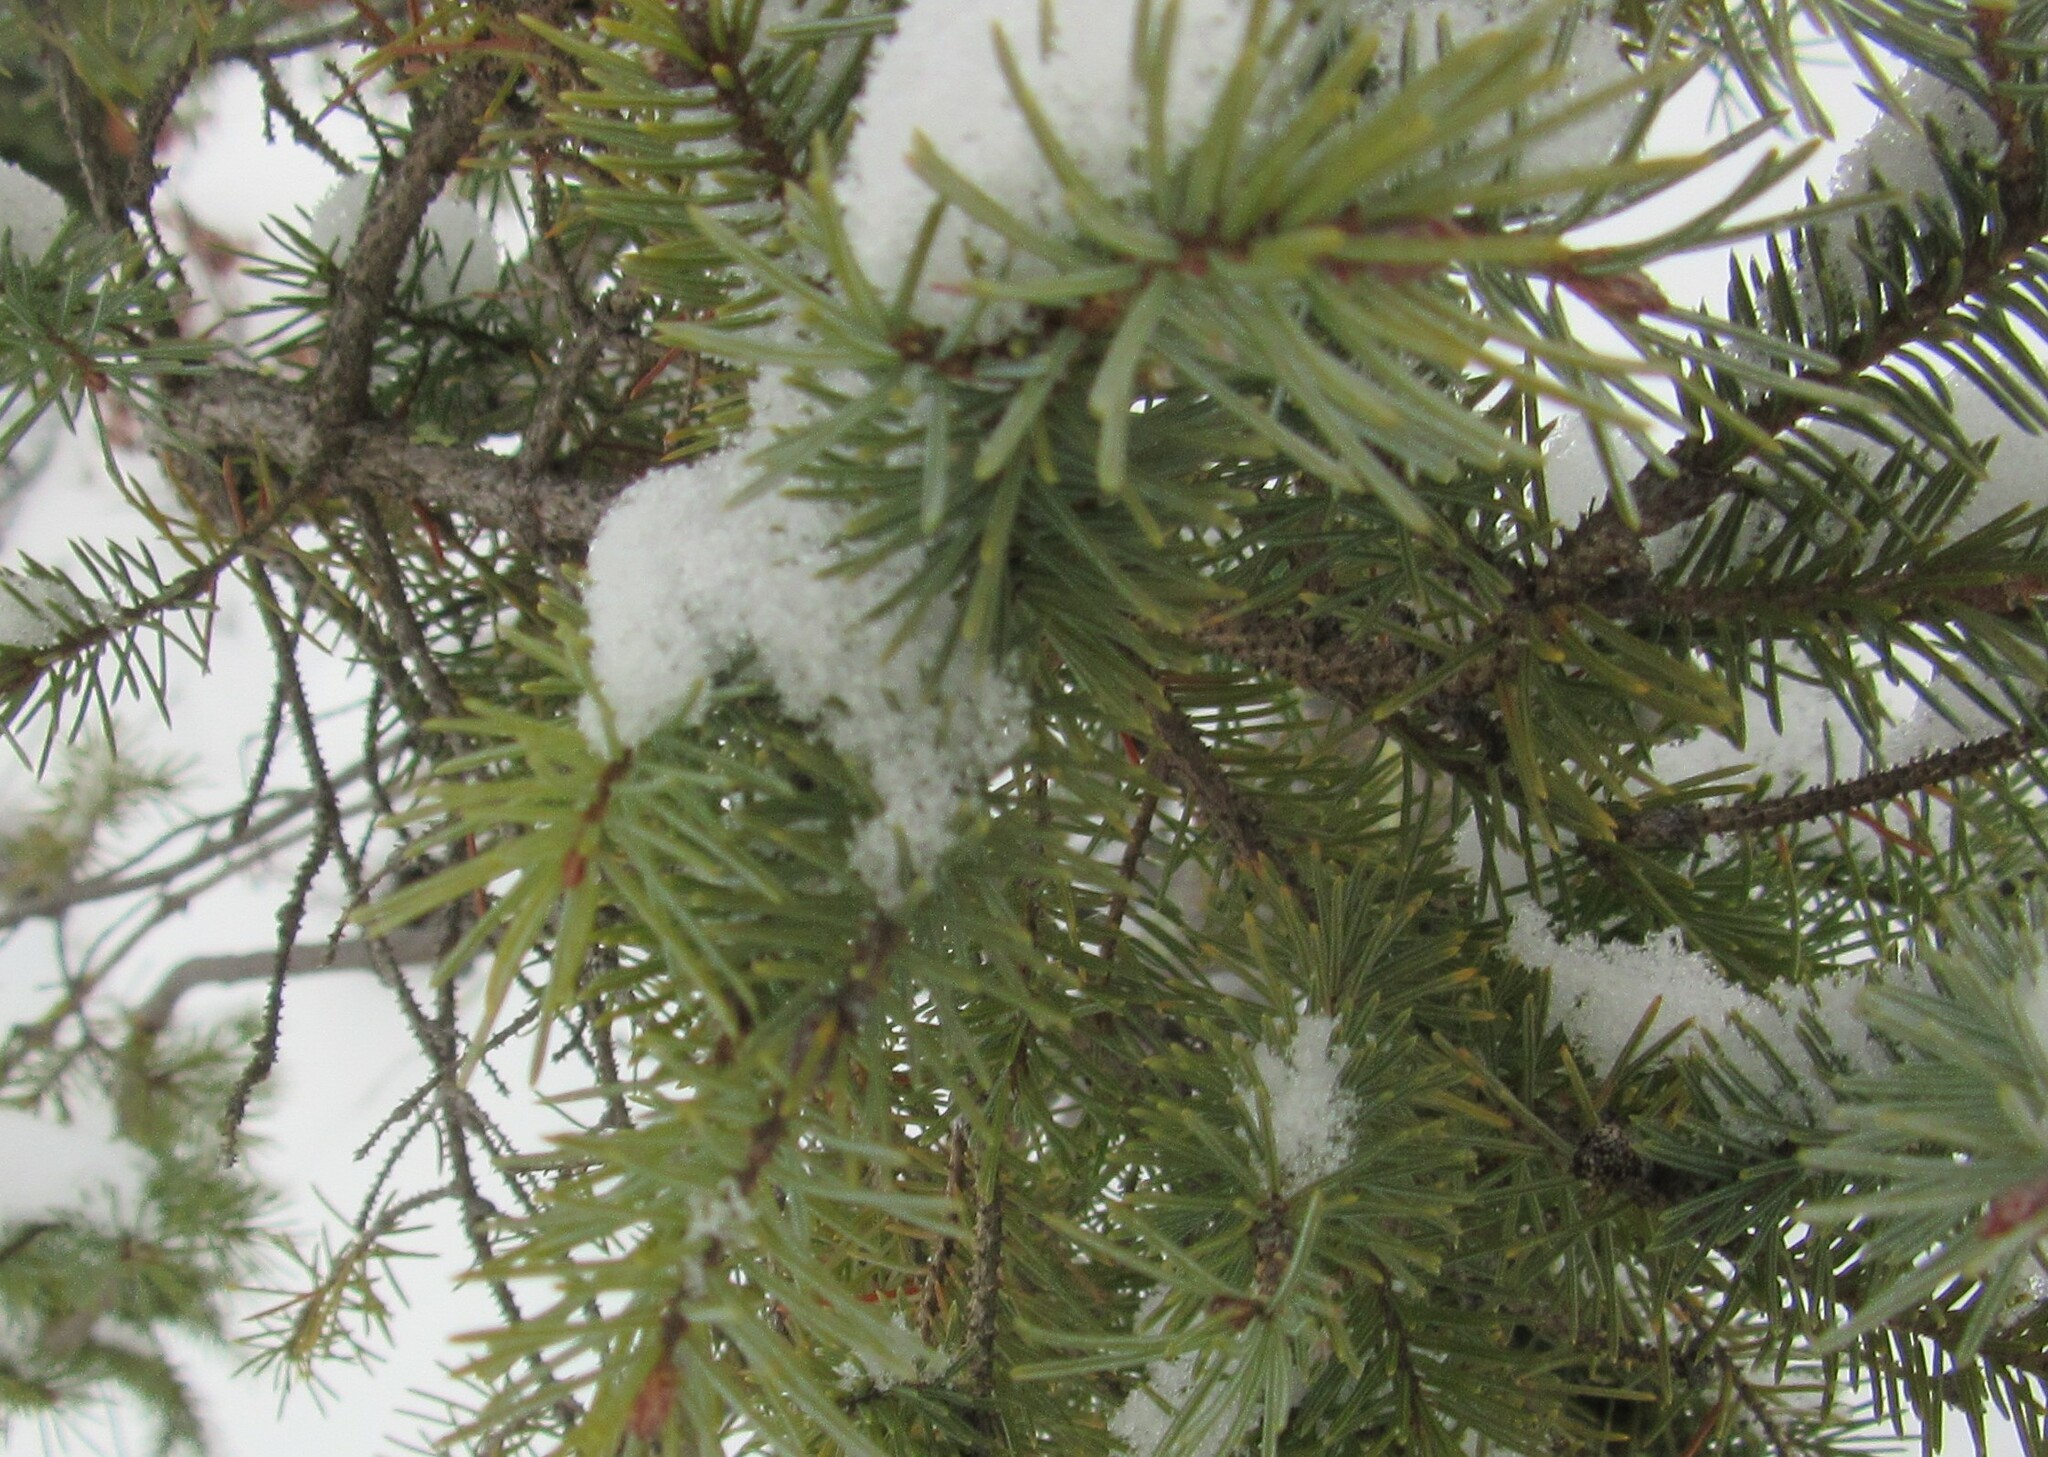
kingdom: Plantae
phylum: Tracheophyta
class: Pinopsida
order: Pinales
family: Pinaceae
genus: Picea
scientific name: Picea mariana
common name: Black spruce
